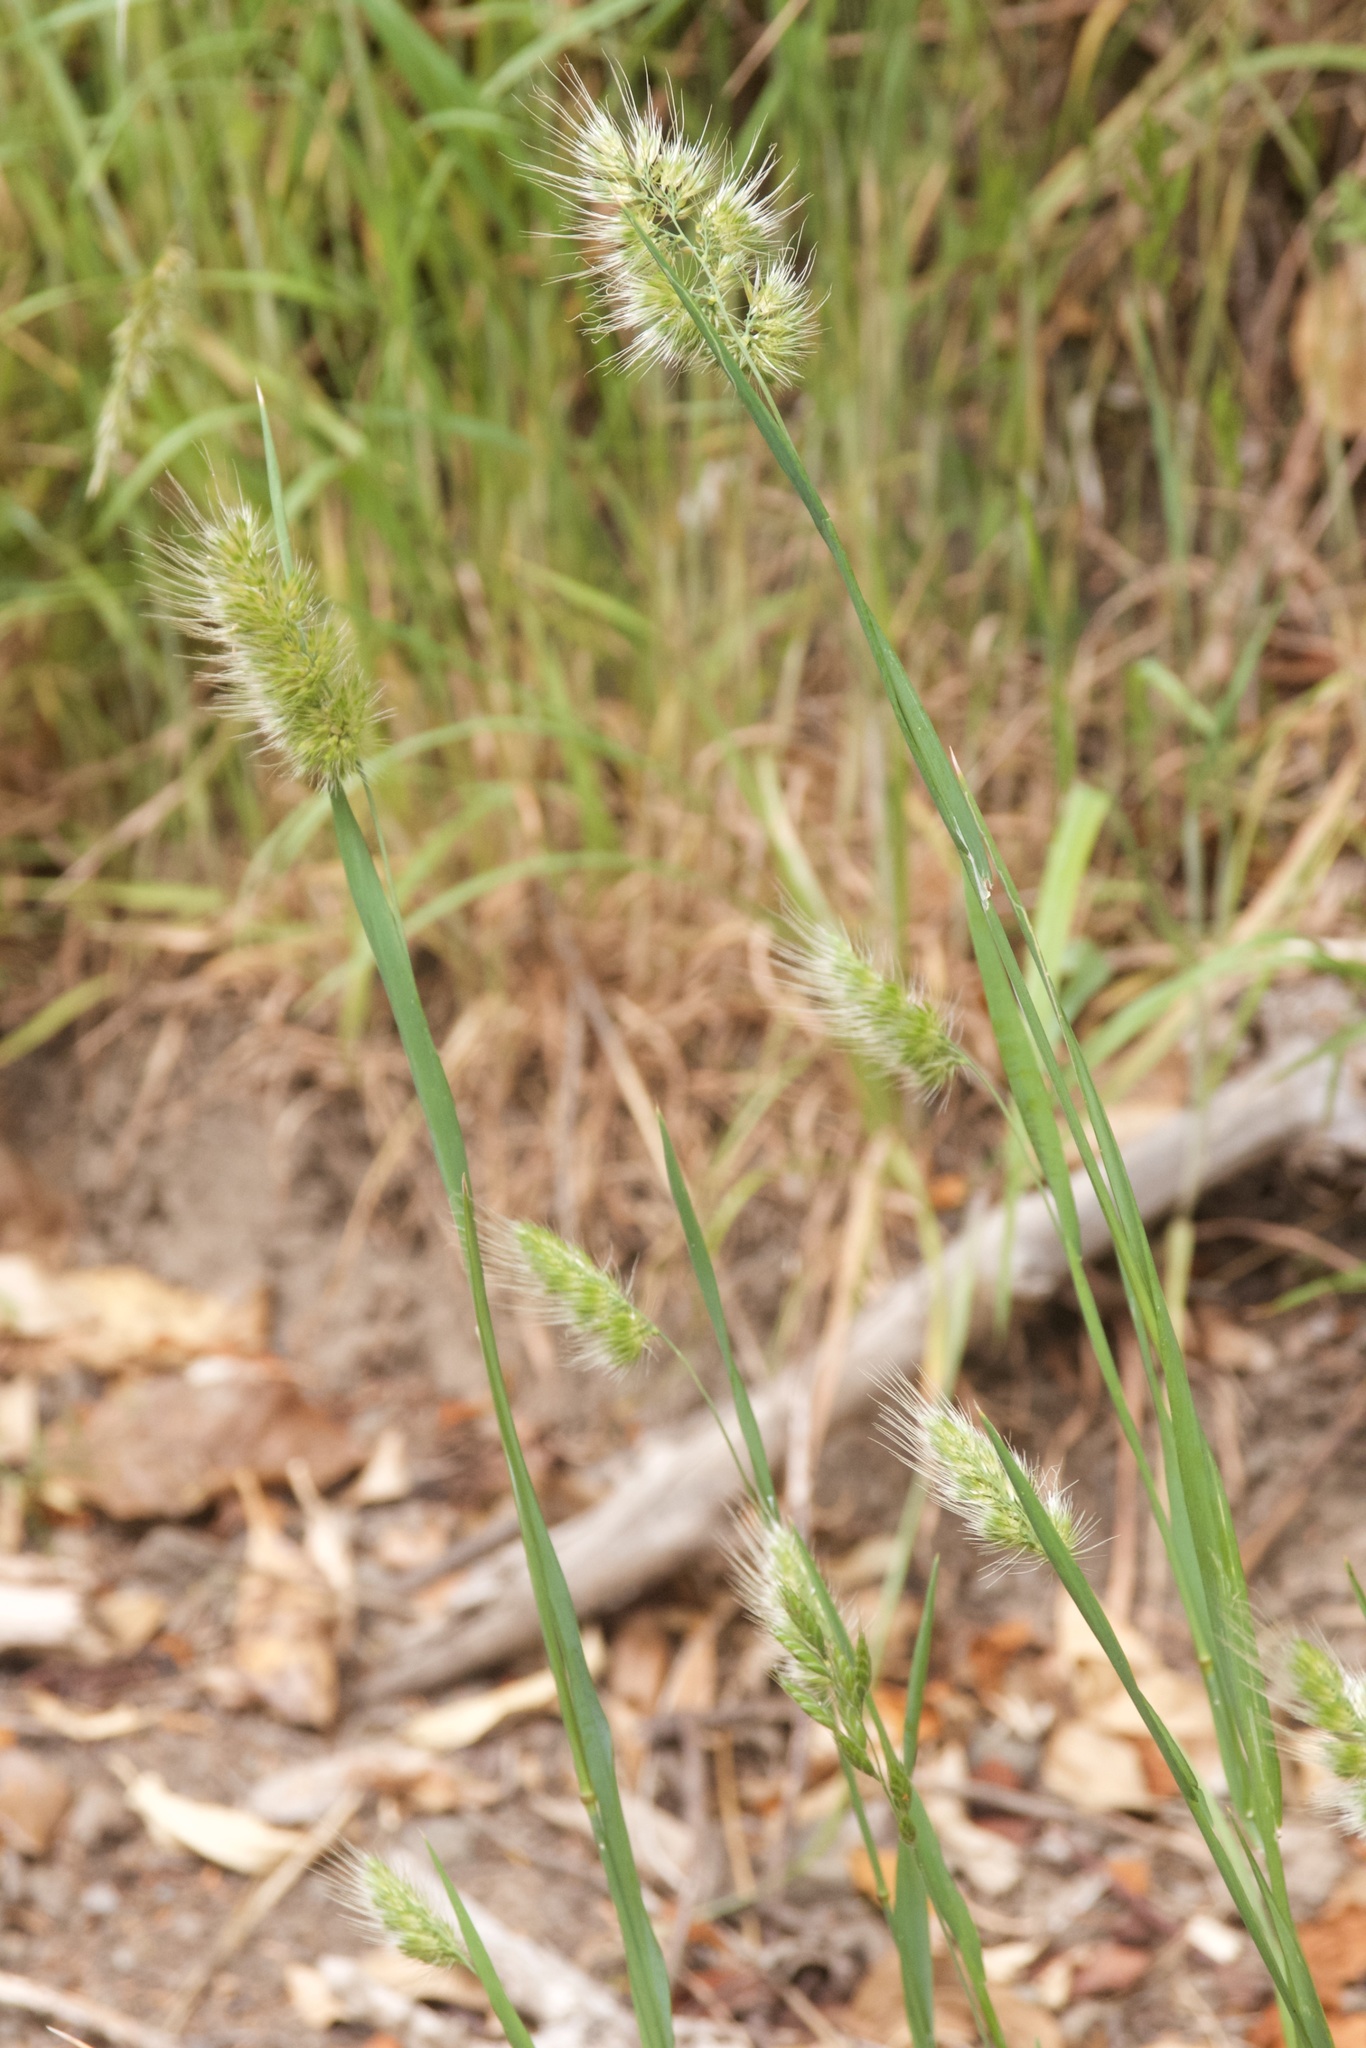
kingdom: Plantae
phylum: Tracheophyta
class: Liliopsida
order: Poales
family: Poaceae
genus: Cynosurus
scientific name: Cynosurus echinatus
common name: Rough dog's-tail
